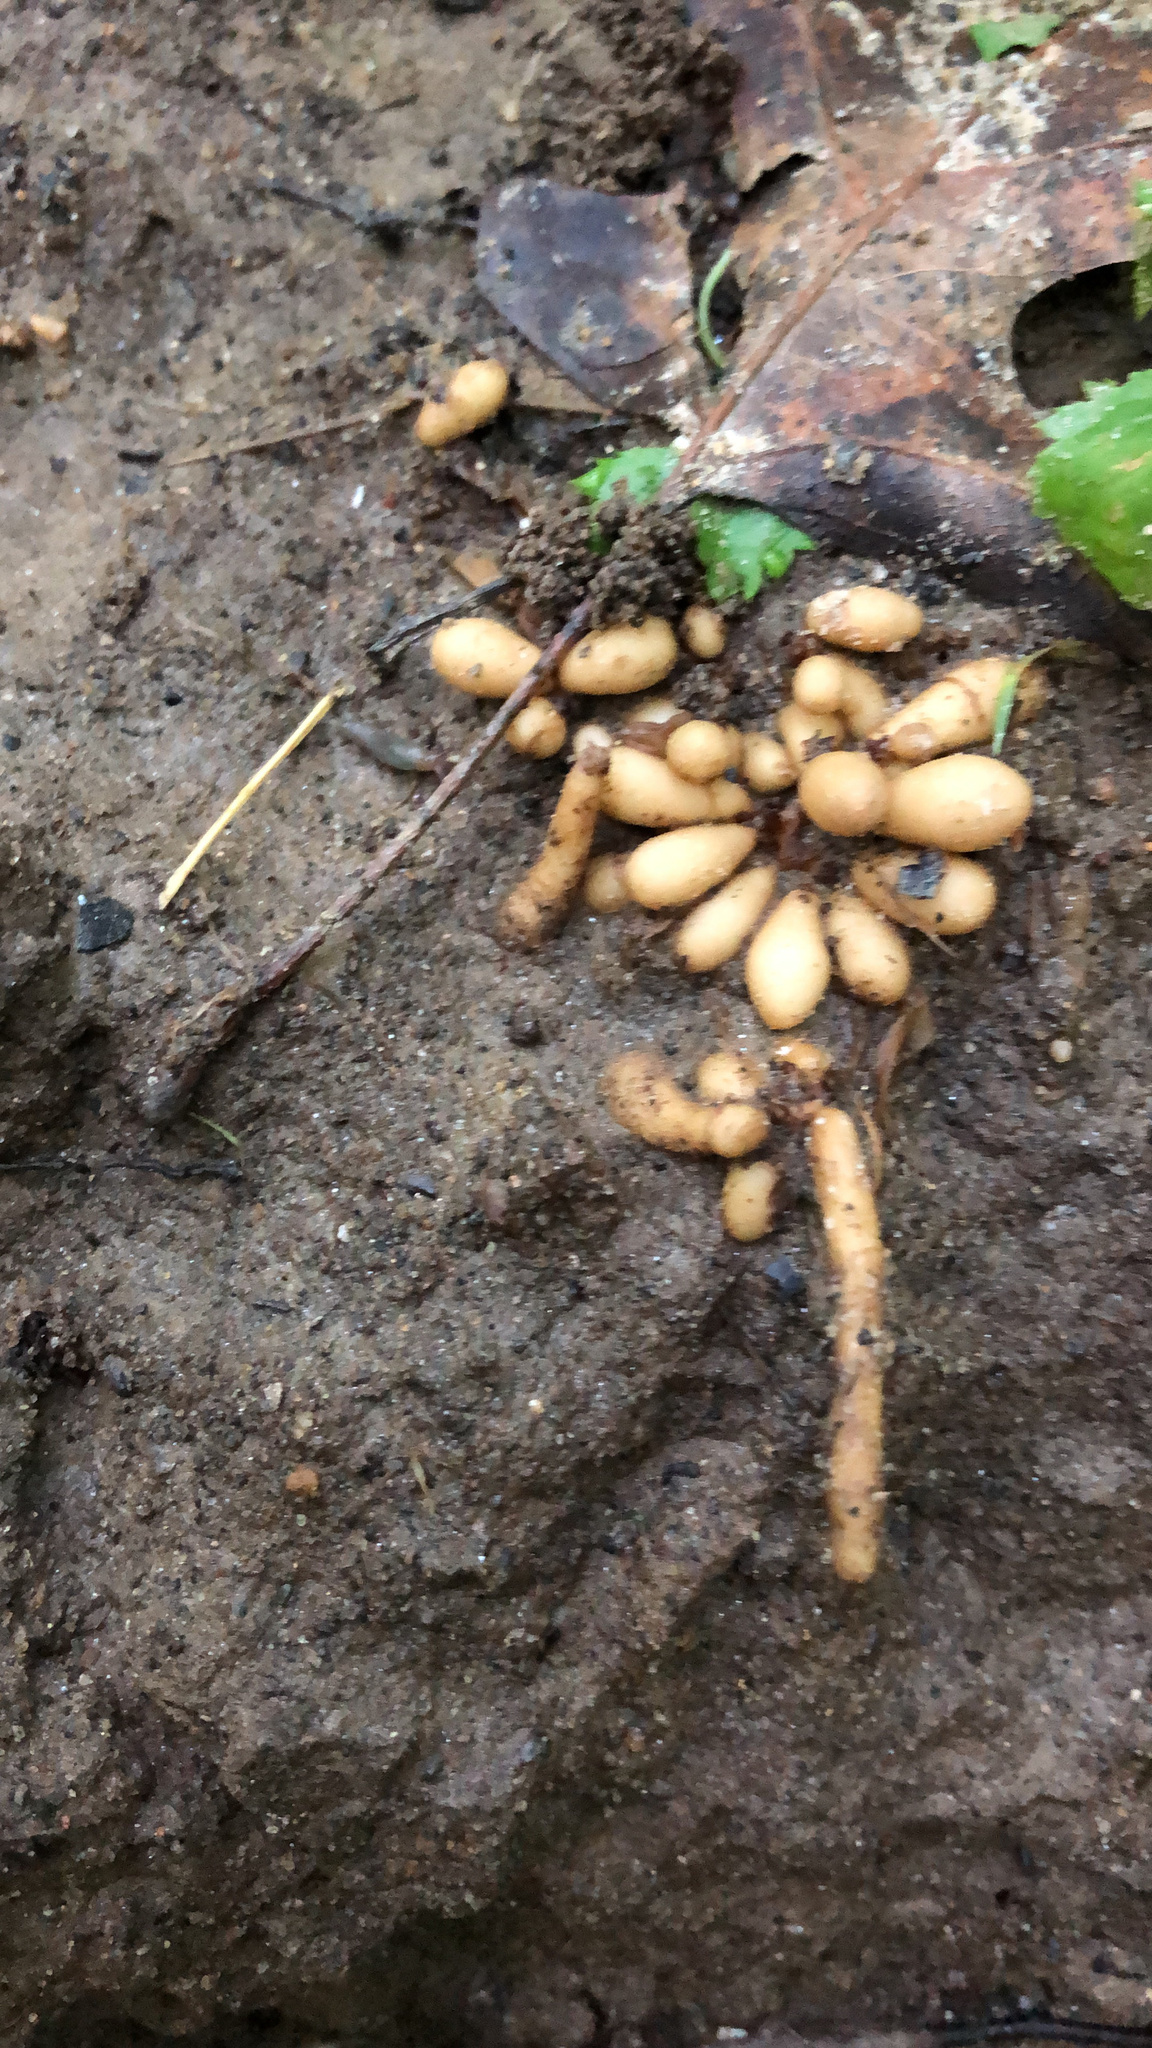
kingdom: Plantae
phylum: Tracheophyta
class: Magnoliopsida
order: Ranunculales
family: Ranunculaceae
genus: Ficaria
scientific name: Ficaria verna
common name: Lesser celandine
